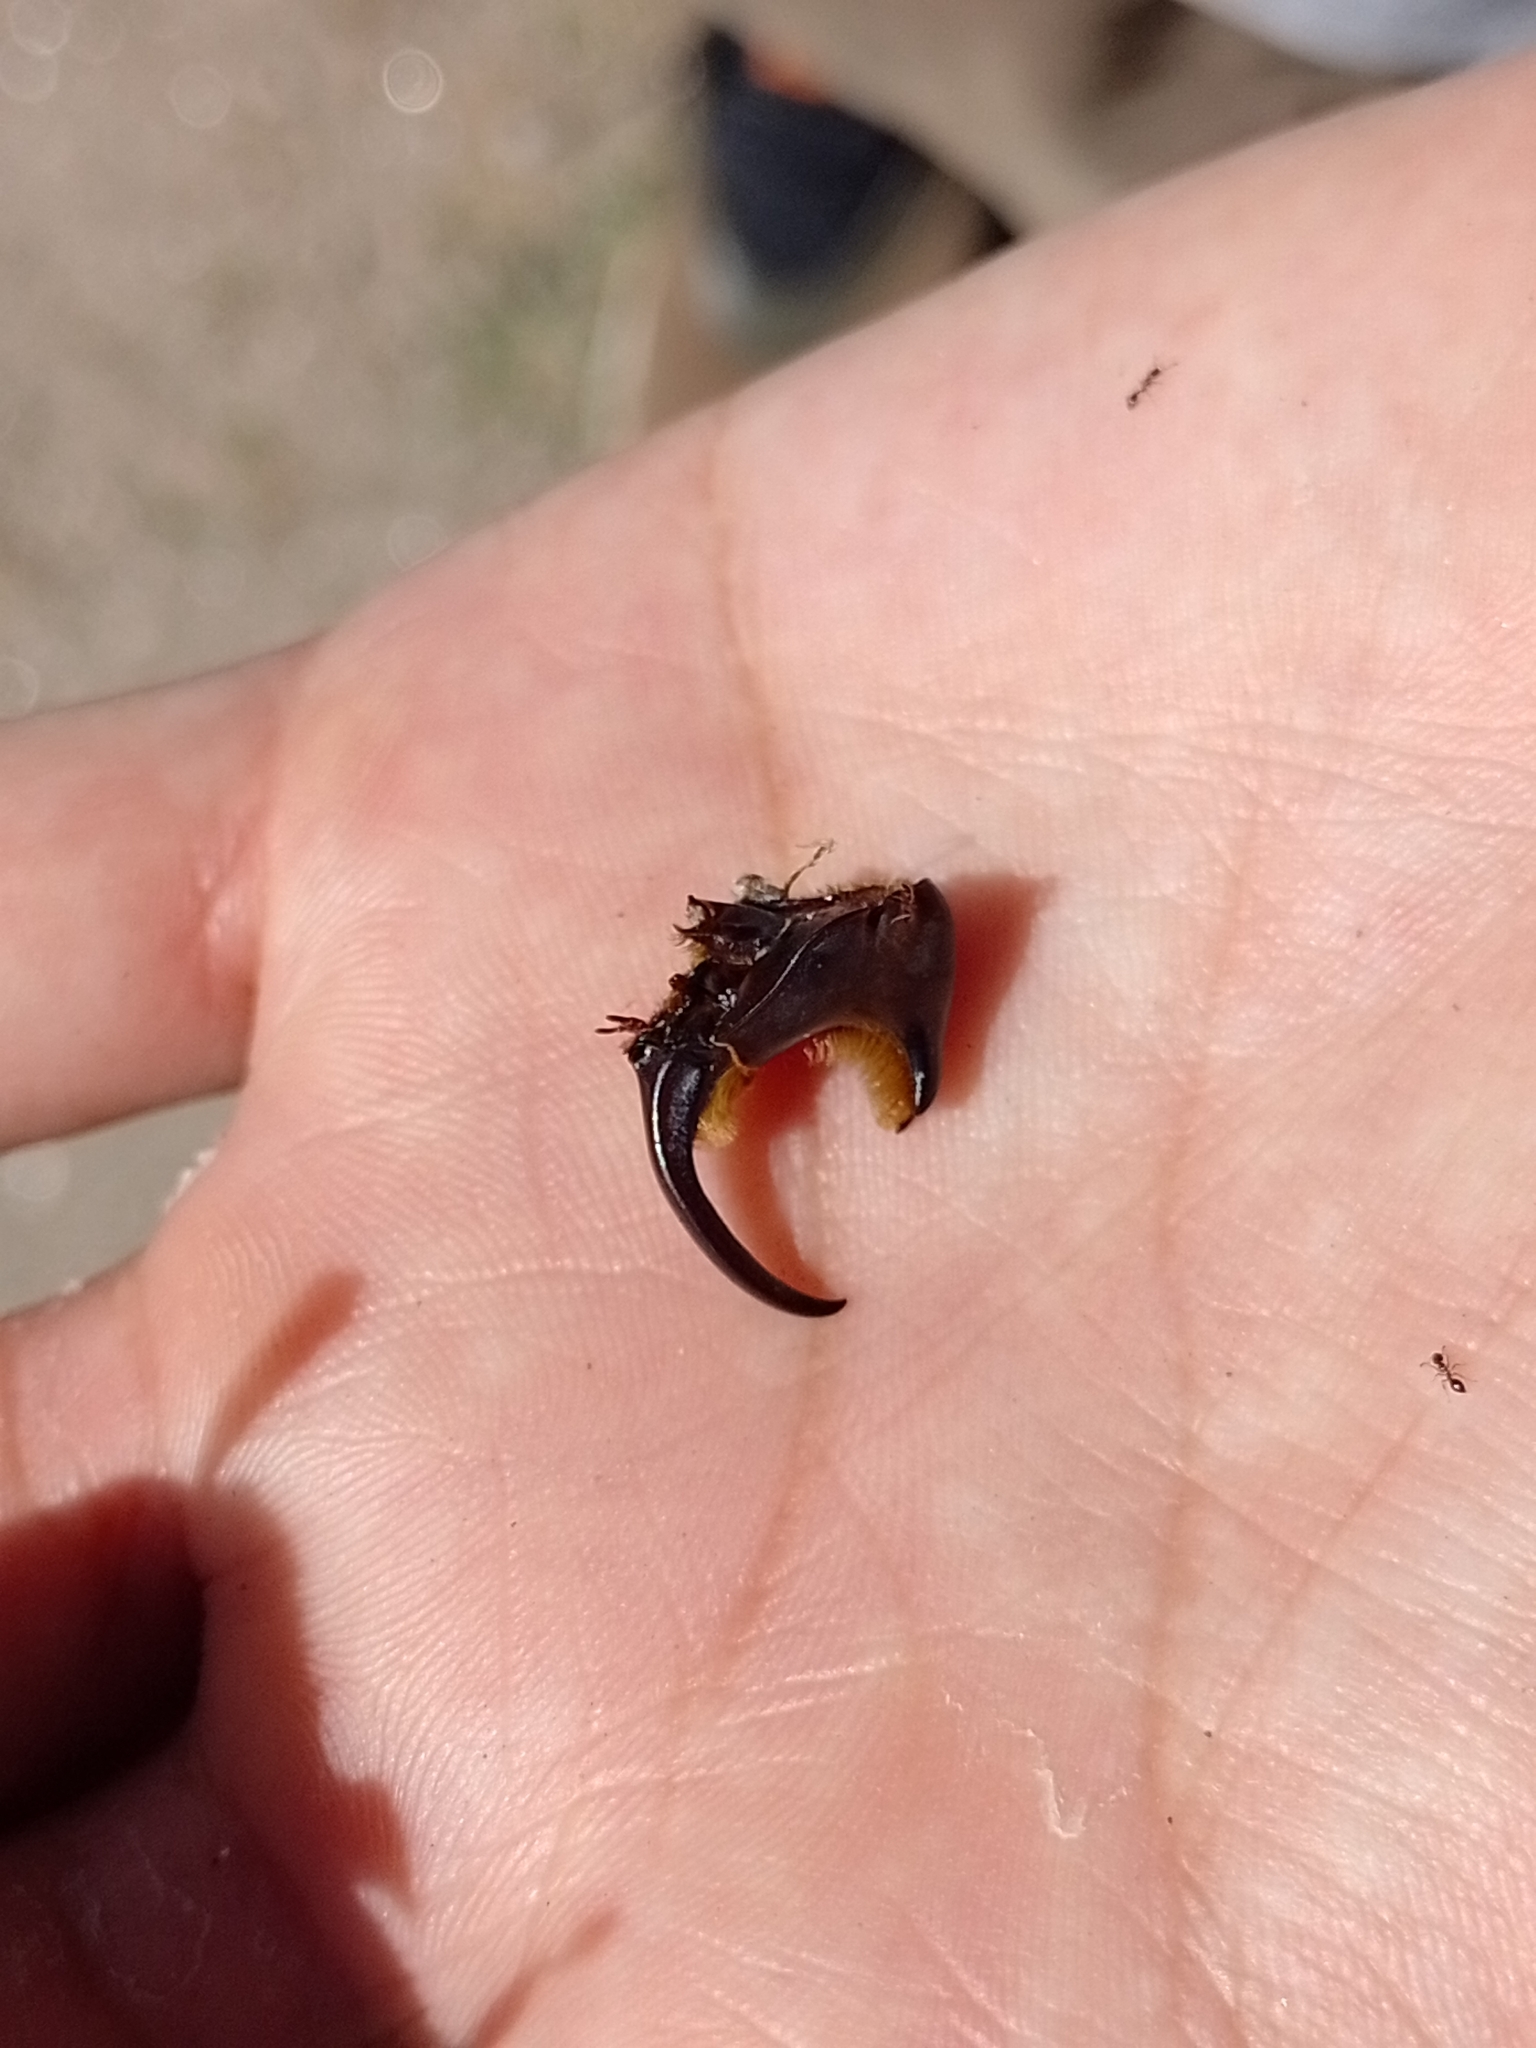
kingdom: Animalia
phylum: Arthropoda
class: Insecta
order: Coleoptera
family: Scarabaeidae
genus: Diloboderus
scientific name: Diloboderus abderus
